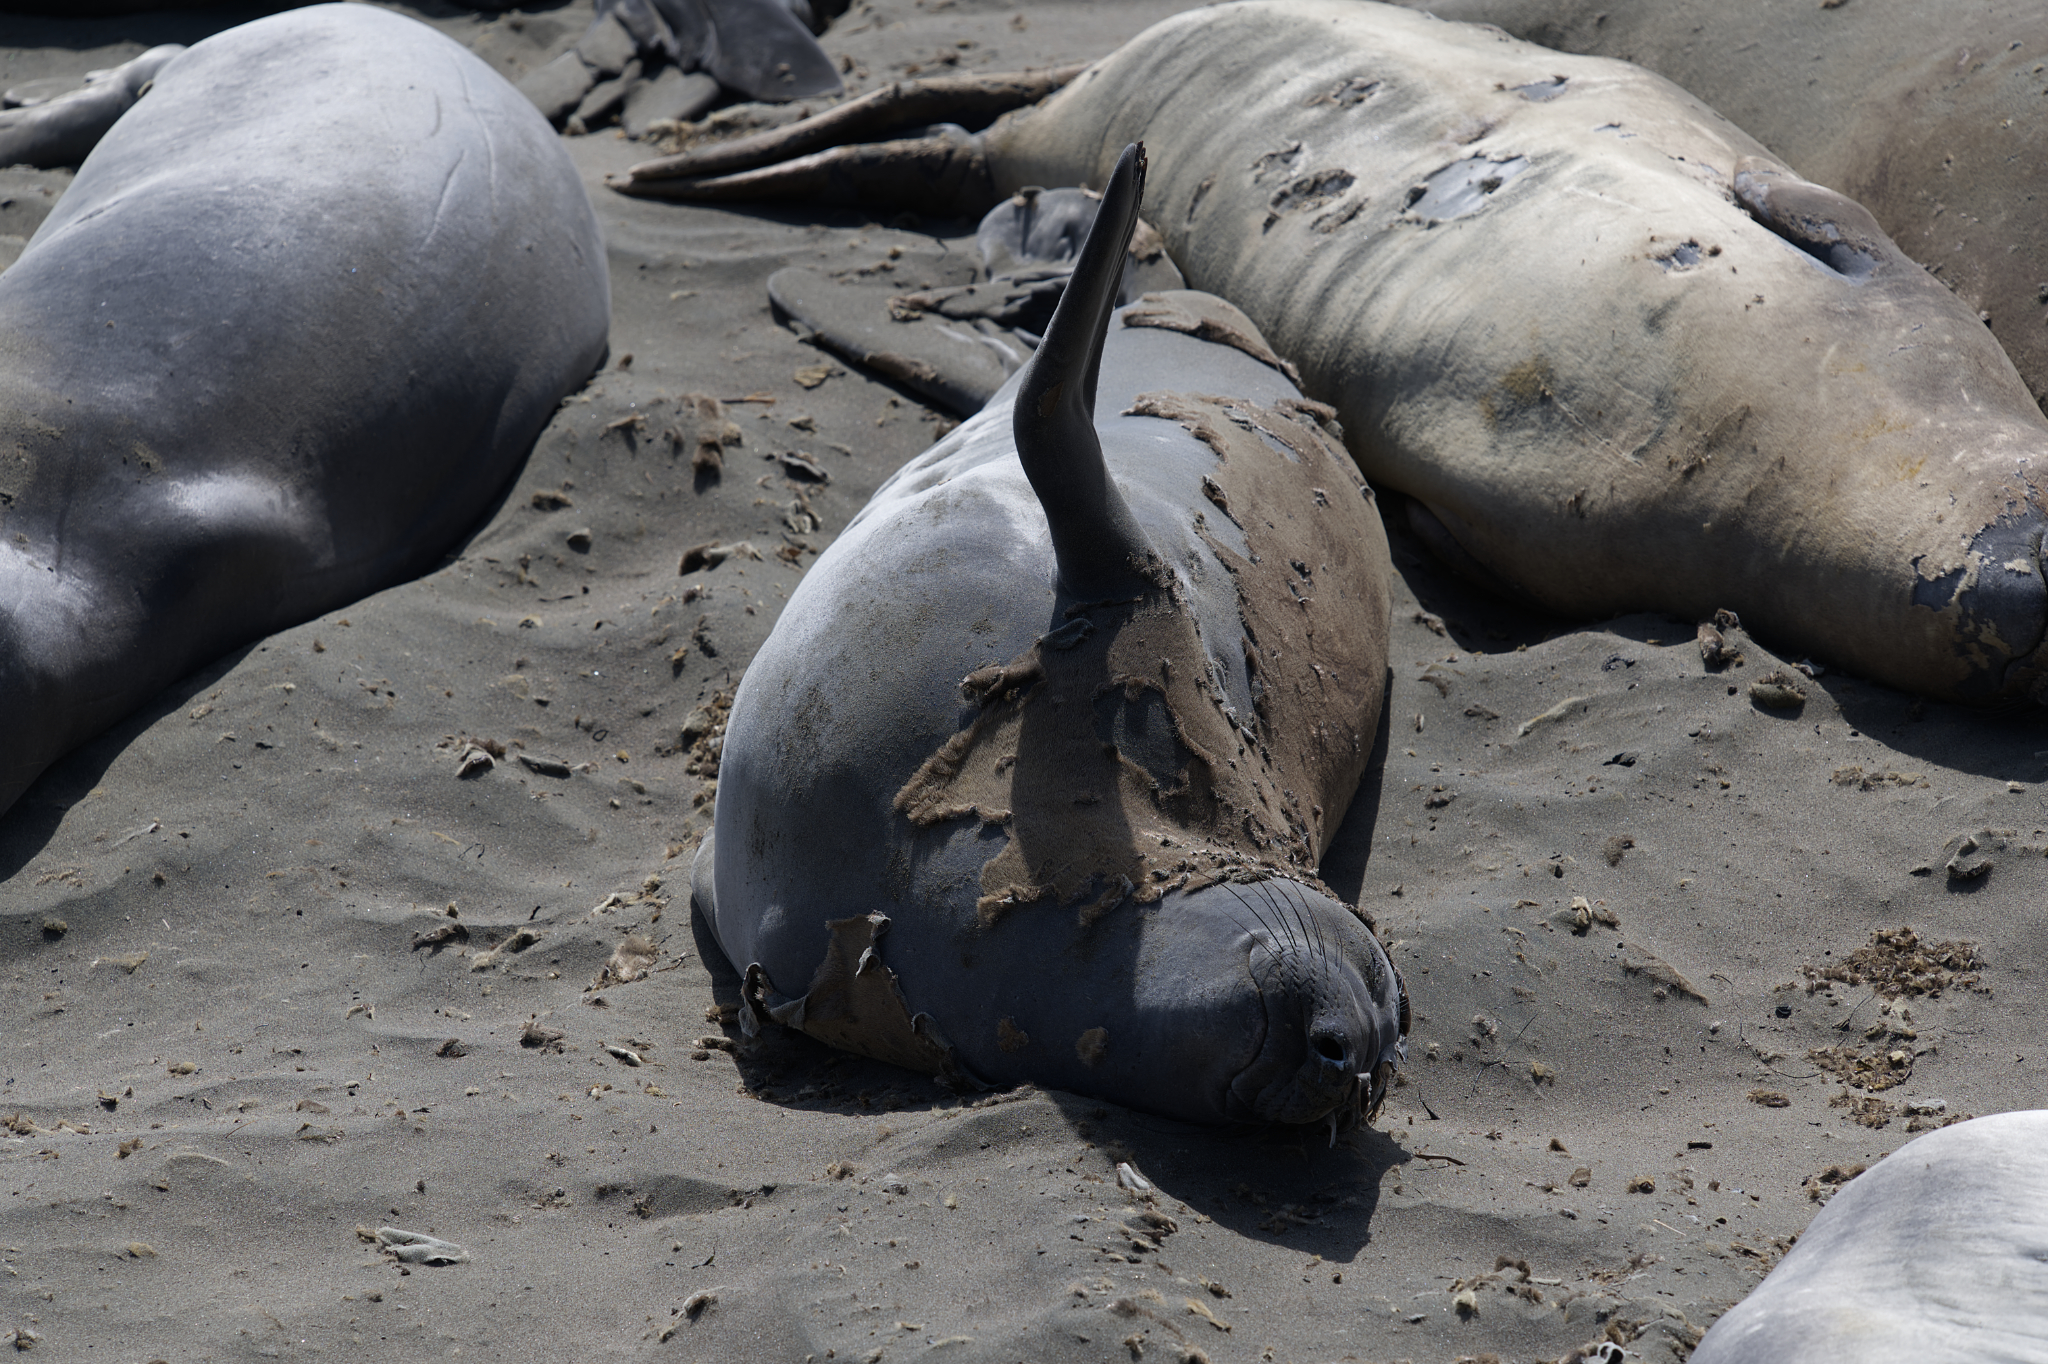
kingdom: Animalia
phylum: Chordata
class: Mammalia
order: Carnivora
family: Phocidae
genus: Mirounga
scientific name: Mirounga angustirostris
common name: Northern elephant seal
